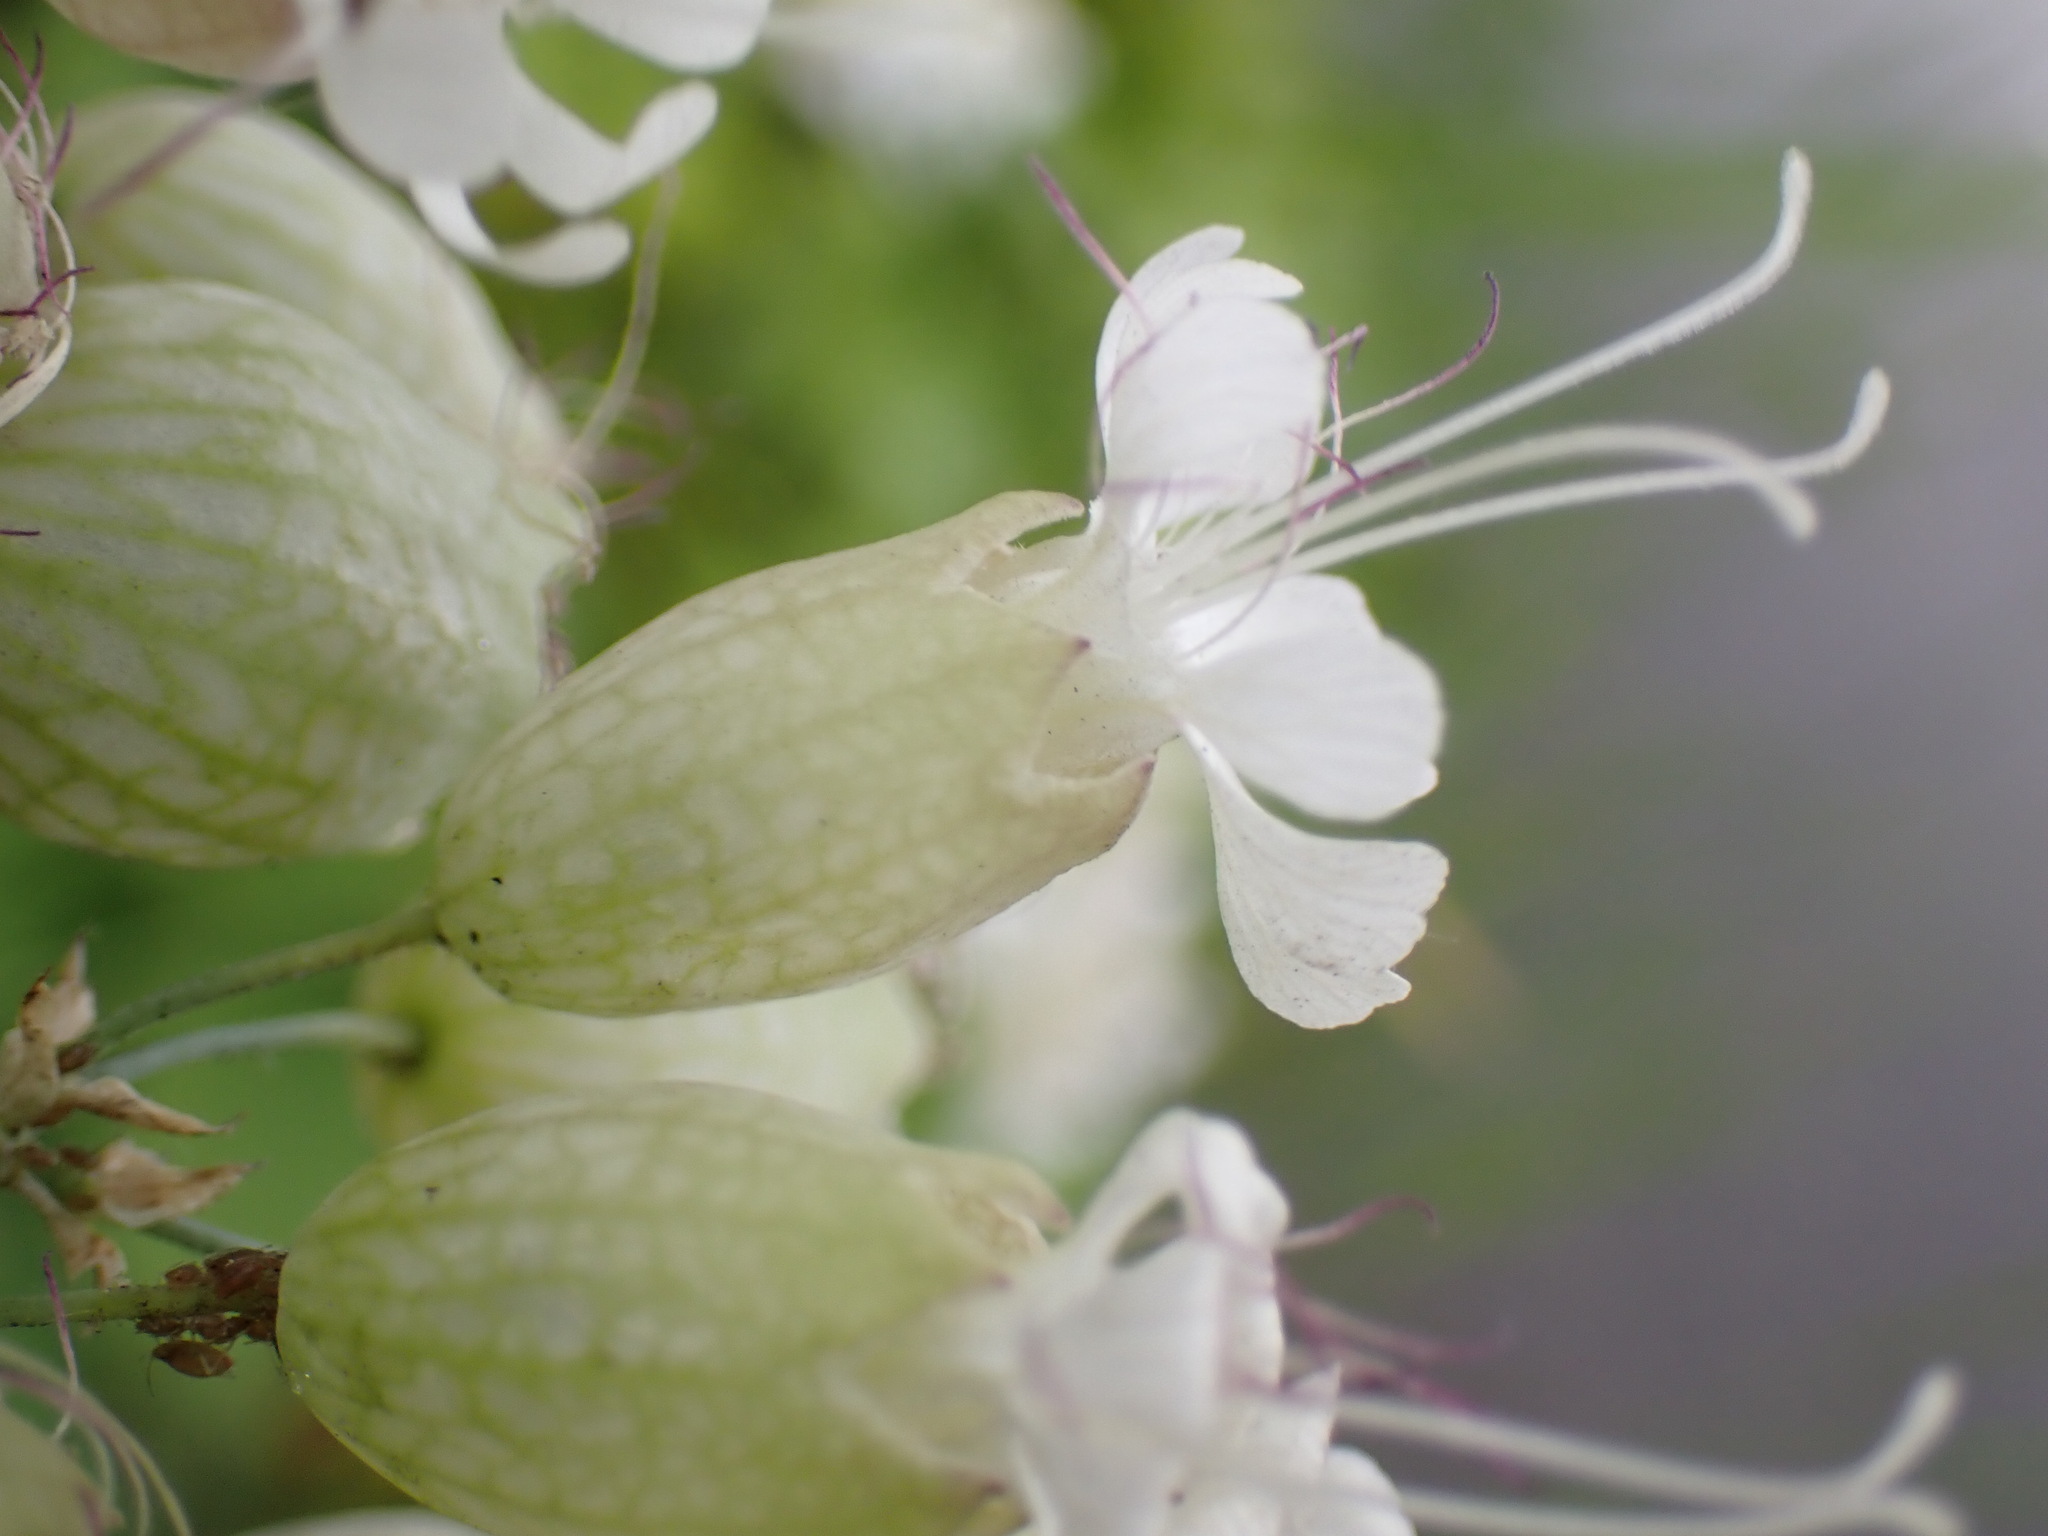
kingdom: Plantae
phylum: Tracheophyta
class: Magnoliopsida
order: Caryophyllales
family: Caryophyllaceae
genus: Silene
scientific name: Silene vulgaris
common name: Bladder campion
